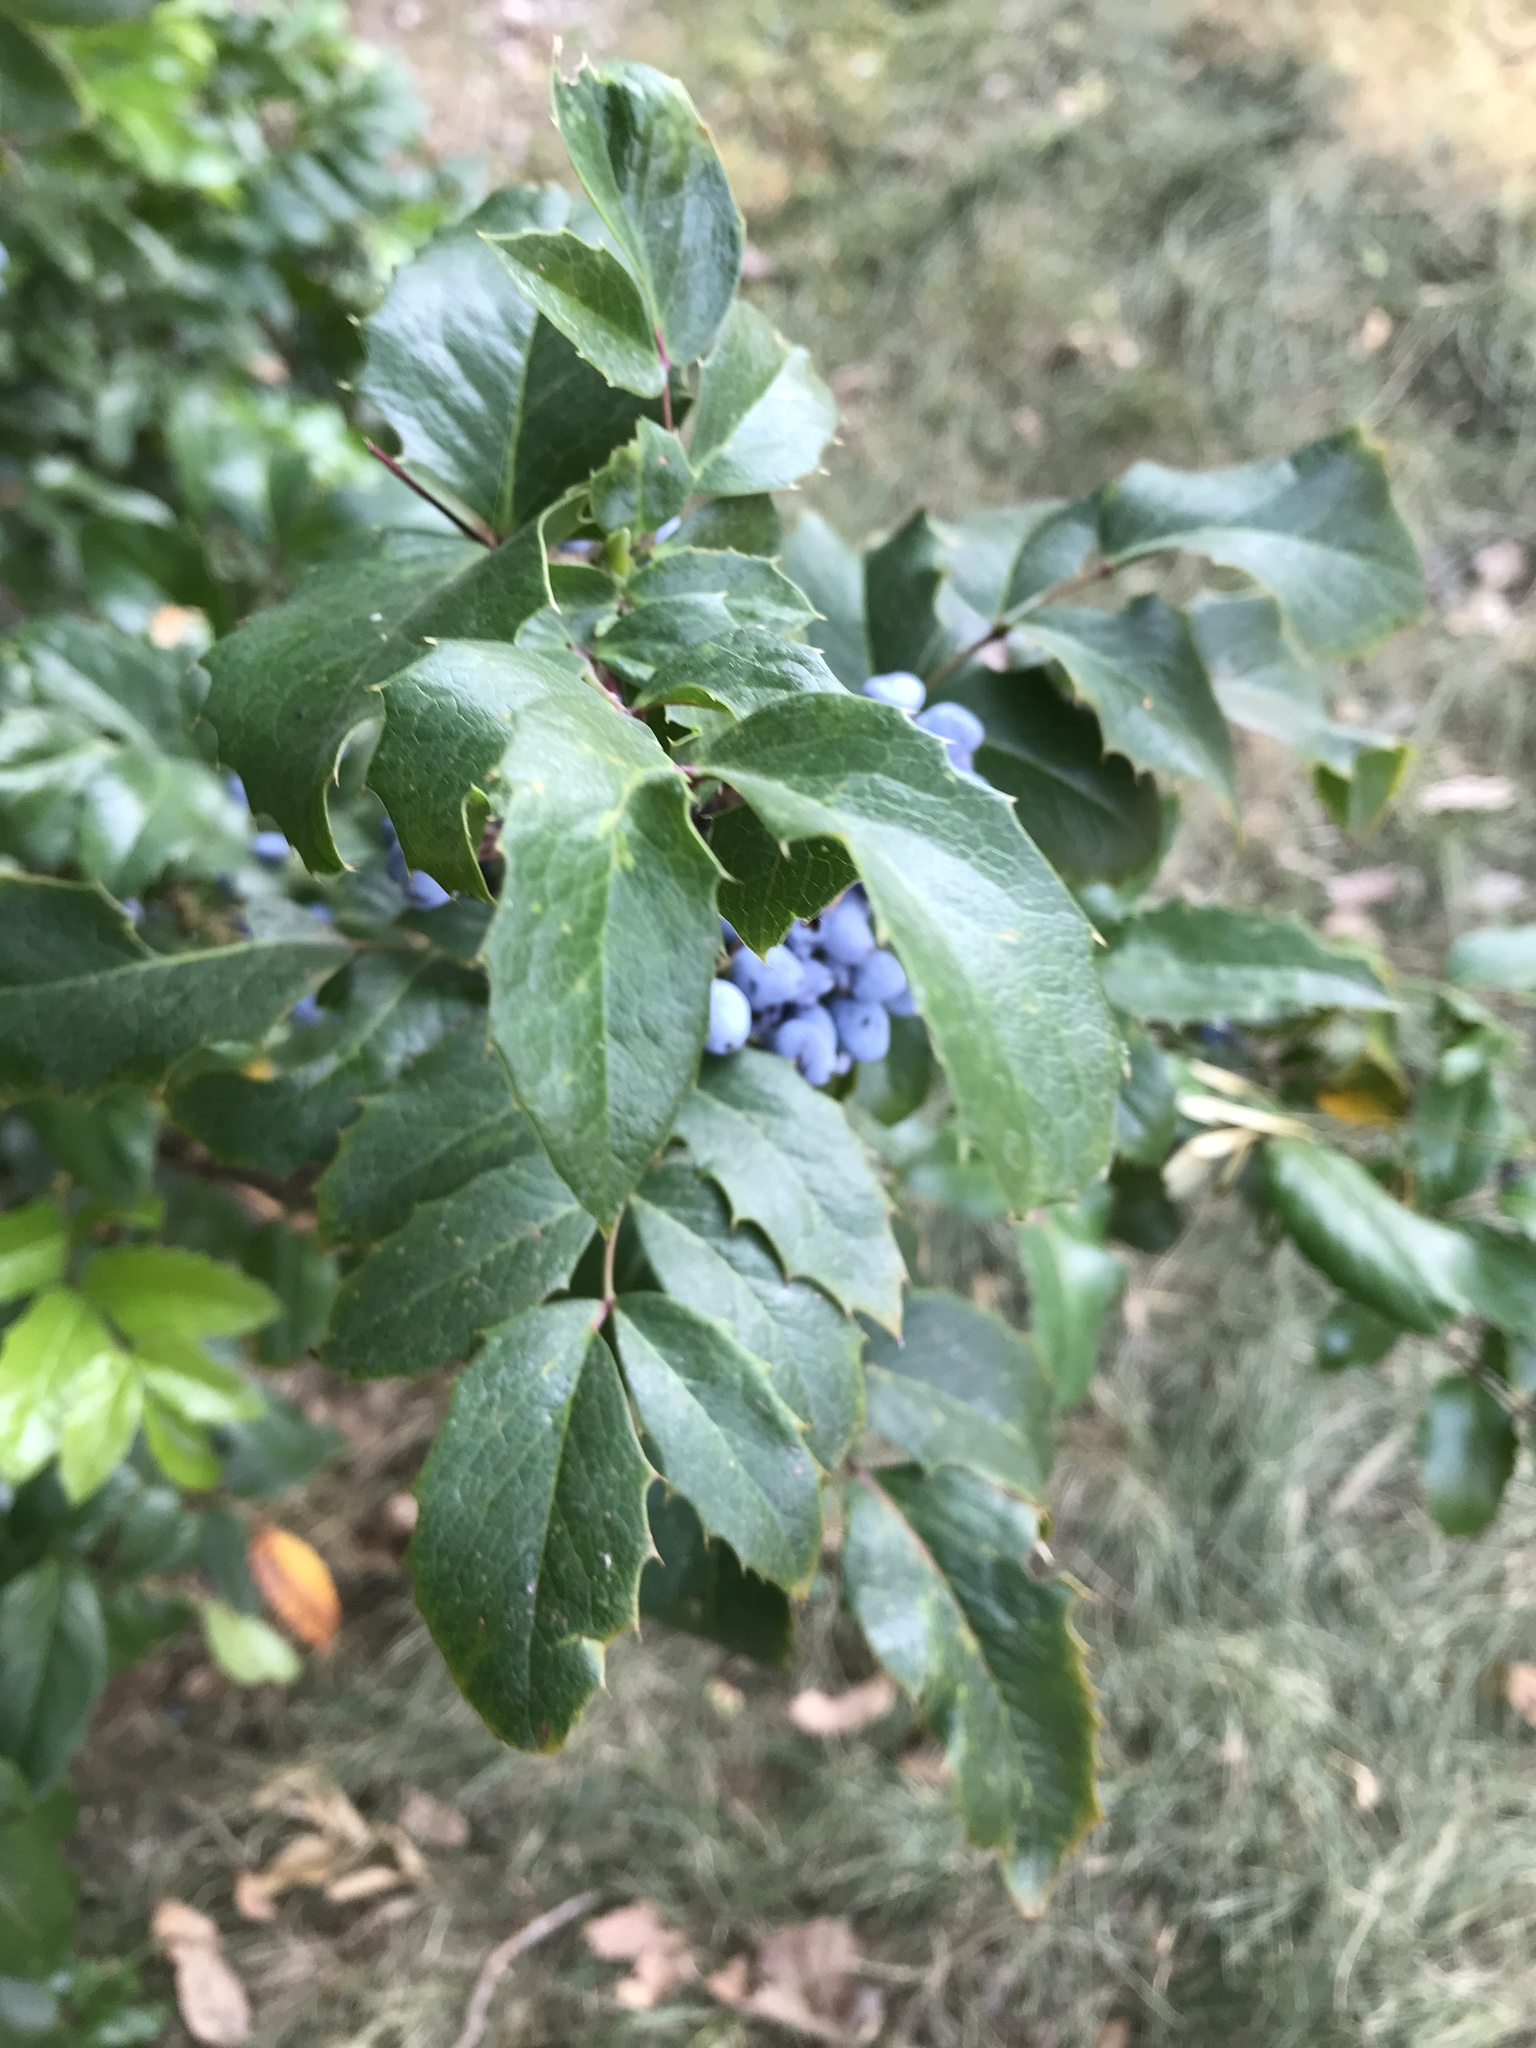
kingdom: Plantae
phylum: Tracheophyta
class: Magnoliopsida
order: Ranunculales
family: Berberidaceae
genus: Mahonia
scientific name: Mahonia aquifolium
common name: Oregon-grape
